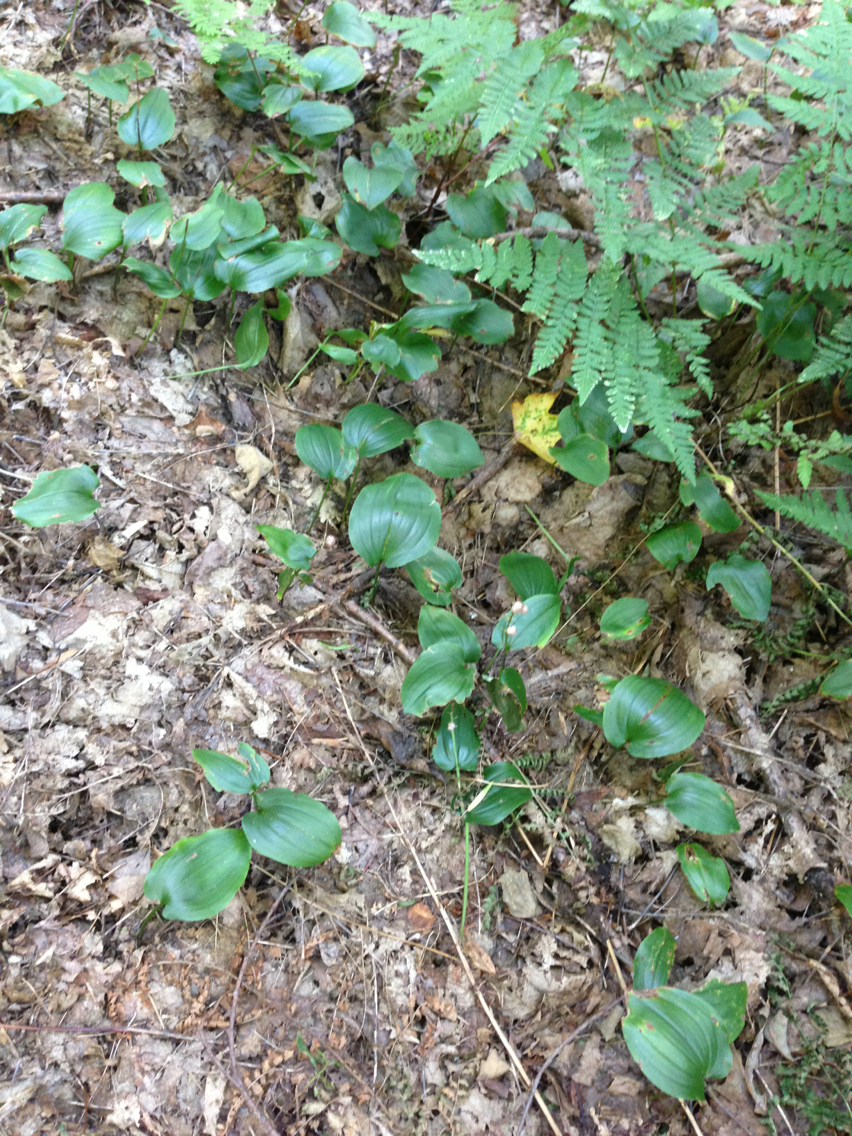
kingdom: Plantae
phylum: Tracheophyta
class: Liliopsida
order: Asparagales
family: Asparagaceae
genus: Maianthemum
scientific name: Maianthemum canadense
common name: False lily-of-the-valley
